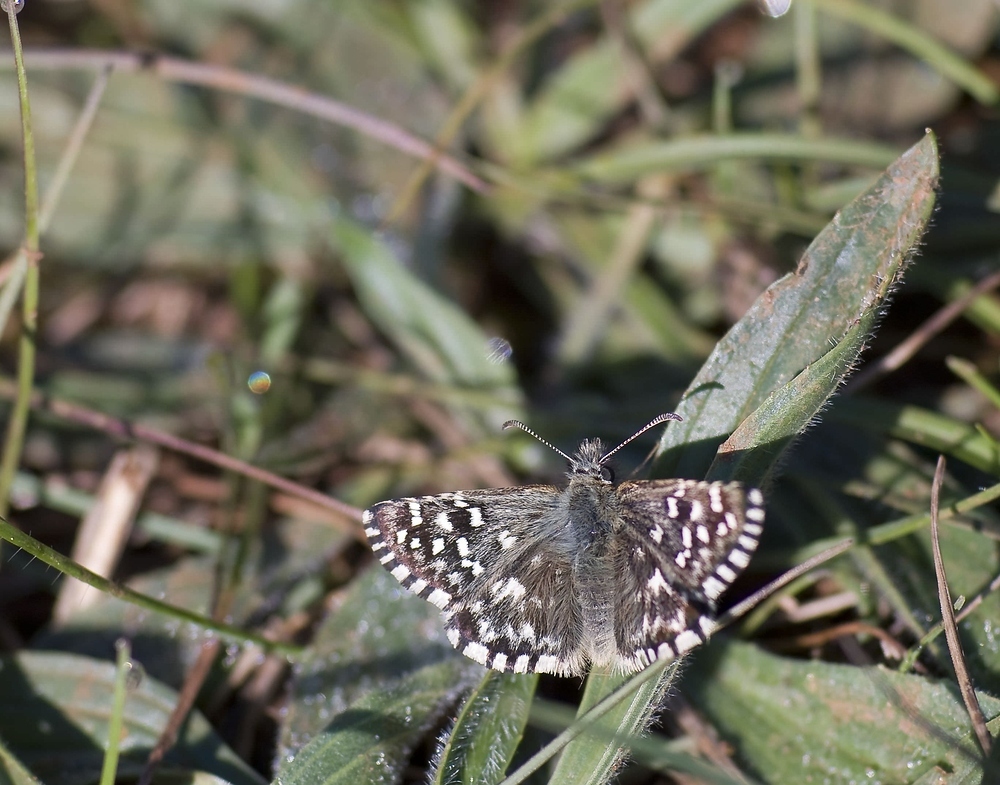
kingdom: Animalia
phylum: Arthropoda
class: Insecta
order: Lepidoptera
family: Hesperiidae
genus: Pyrgus
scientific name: Pyrgus malvoides
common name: Southern grizzled skipper
